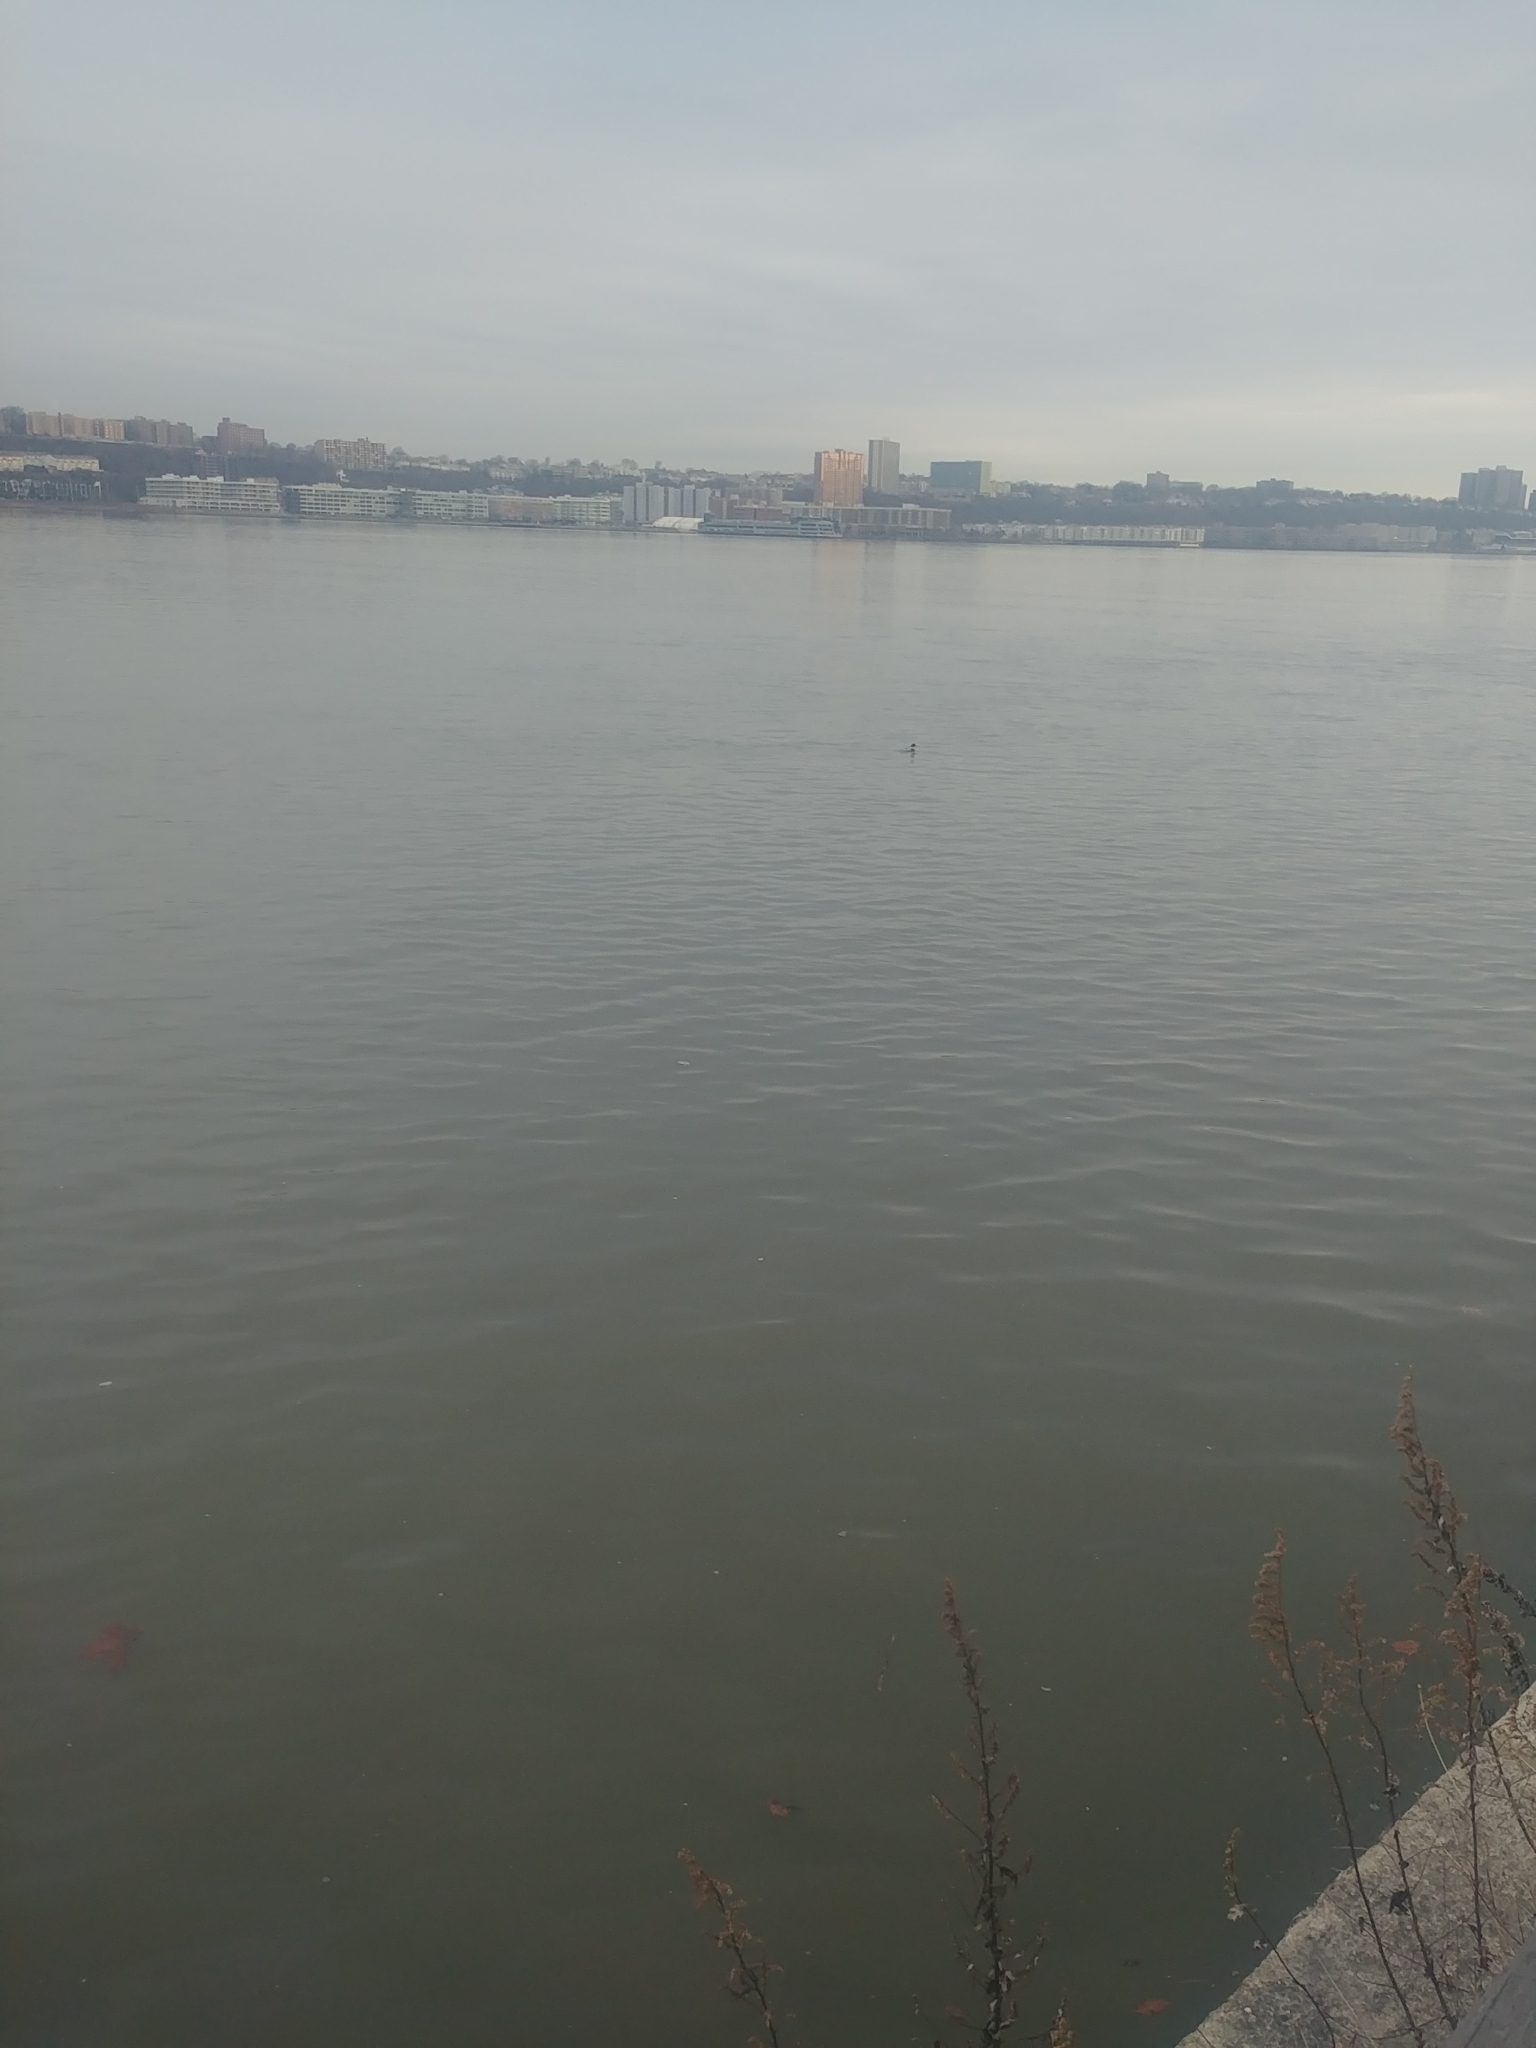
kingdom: Animalia
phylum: Chordata
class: Aves
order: Anseriformes
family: Anatidae
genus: Mergus
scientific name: Mergus serrator
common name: Red-breasted merganser
